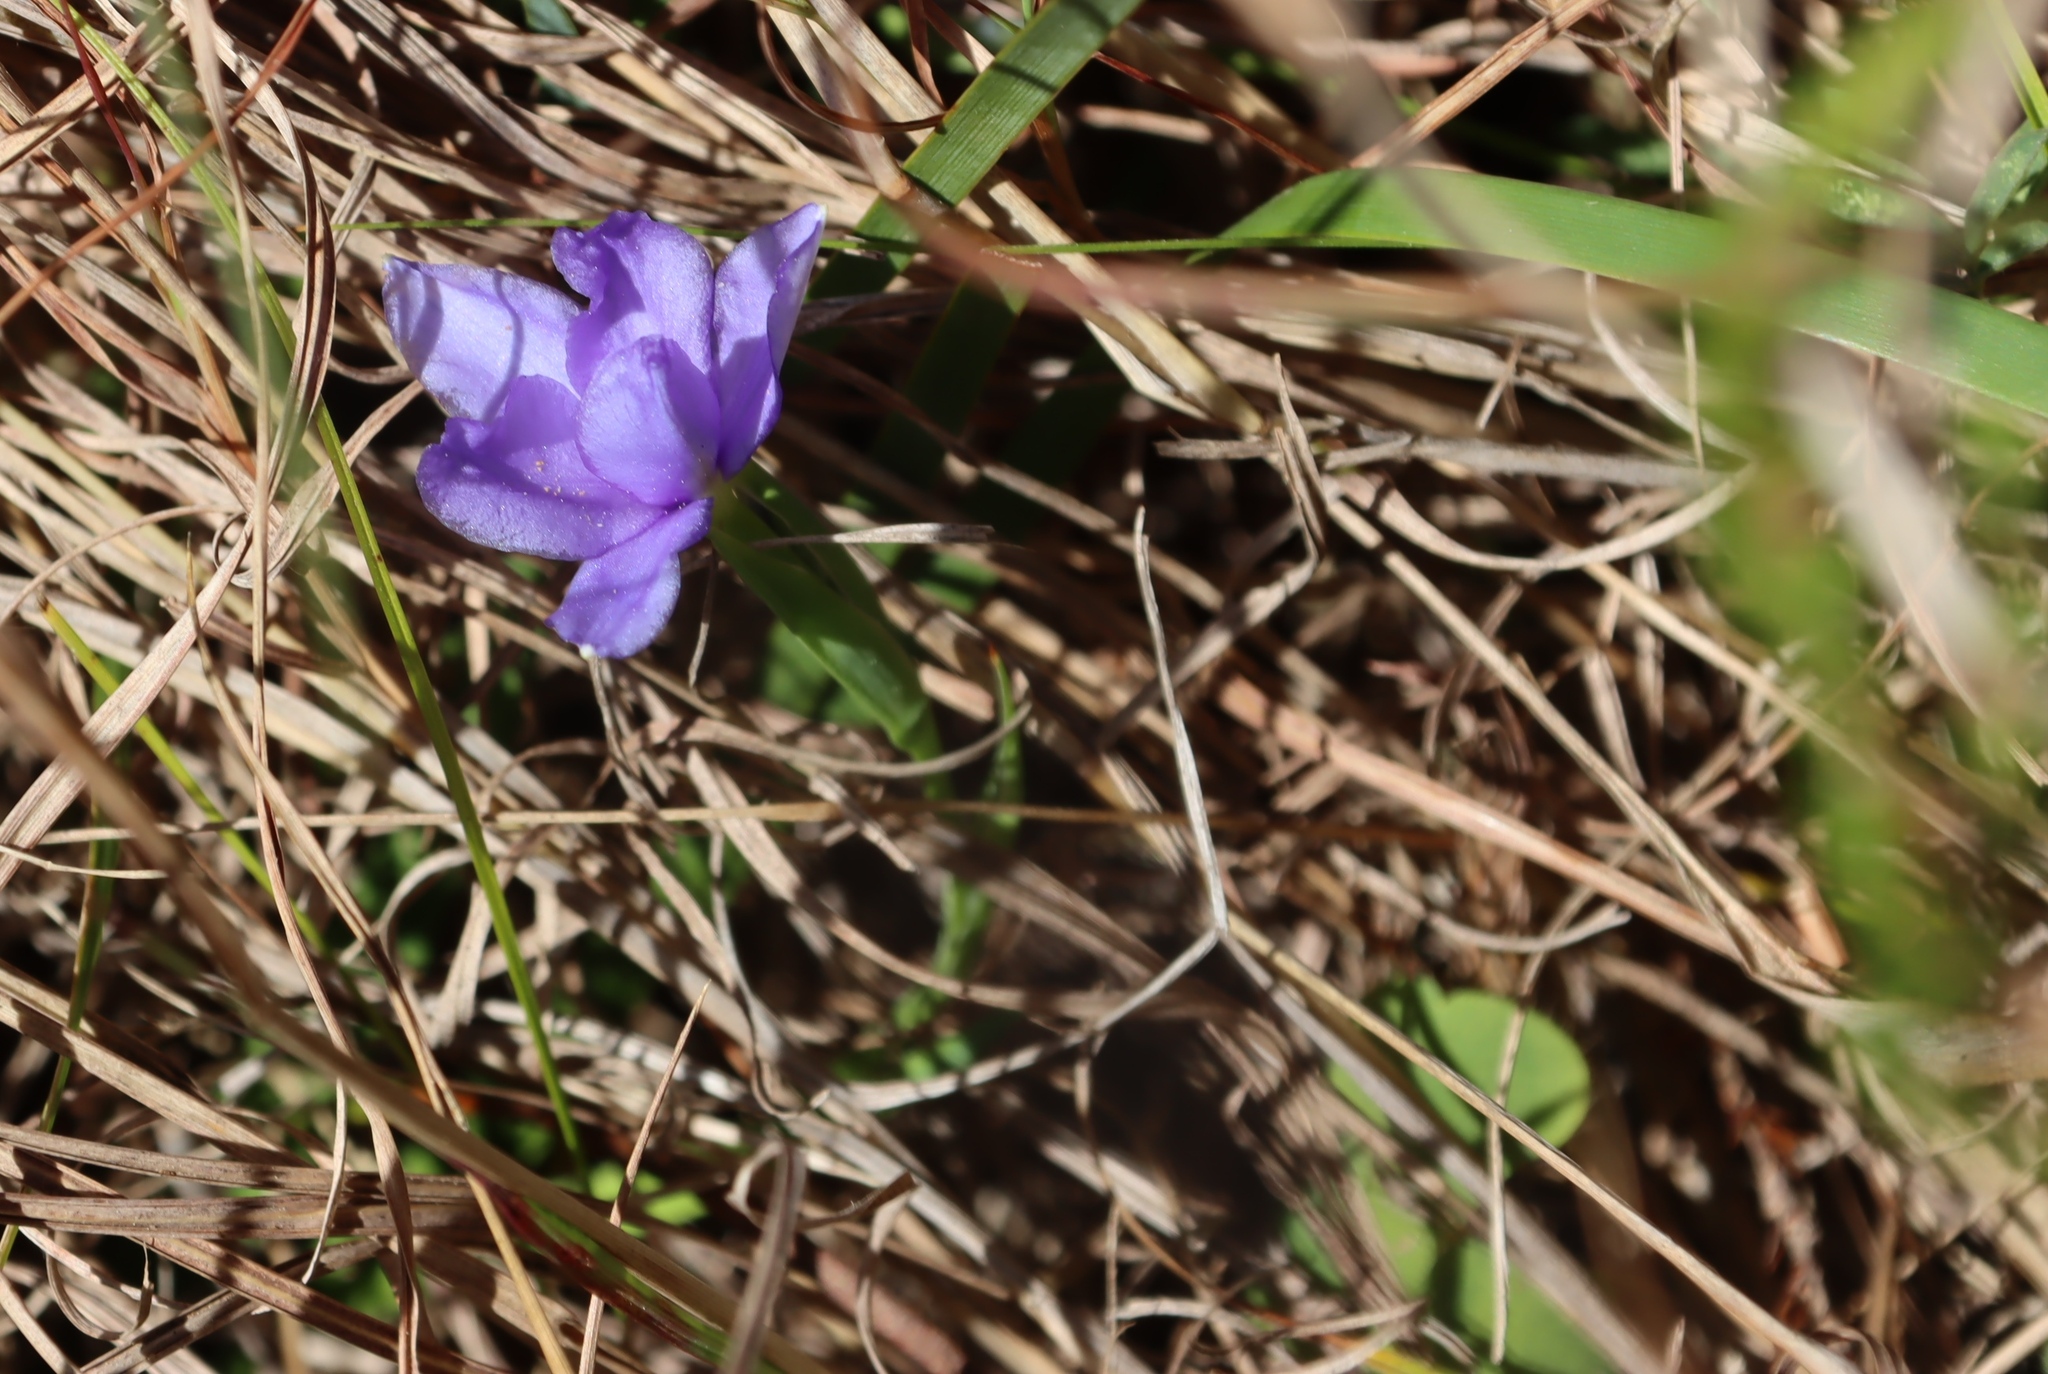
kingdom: Plantae
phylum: Tracheophyta
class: Liliopsida
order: Asparagales
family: Iridaceae
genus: Aristea
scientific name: Aristea pusilla
